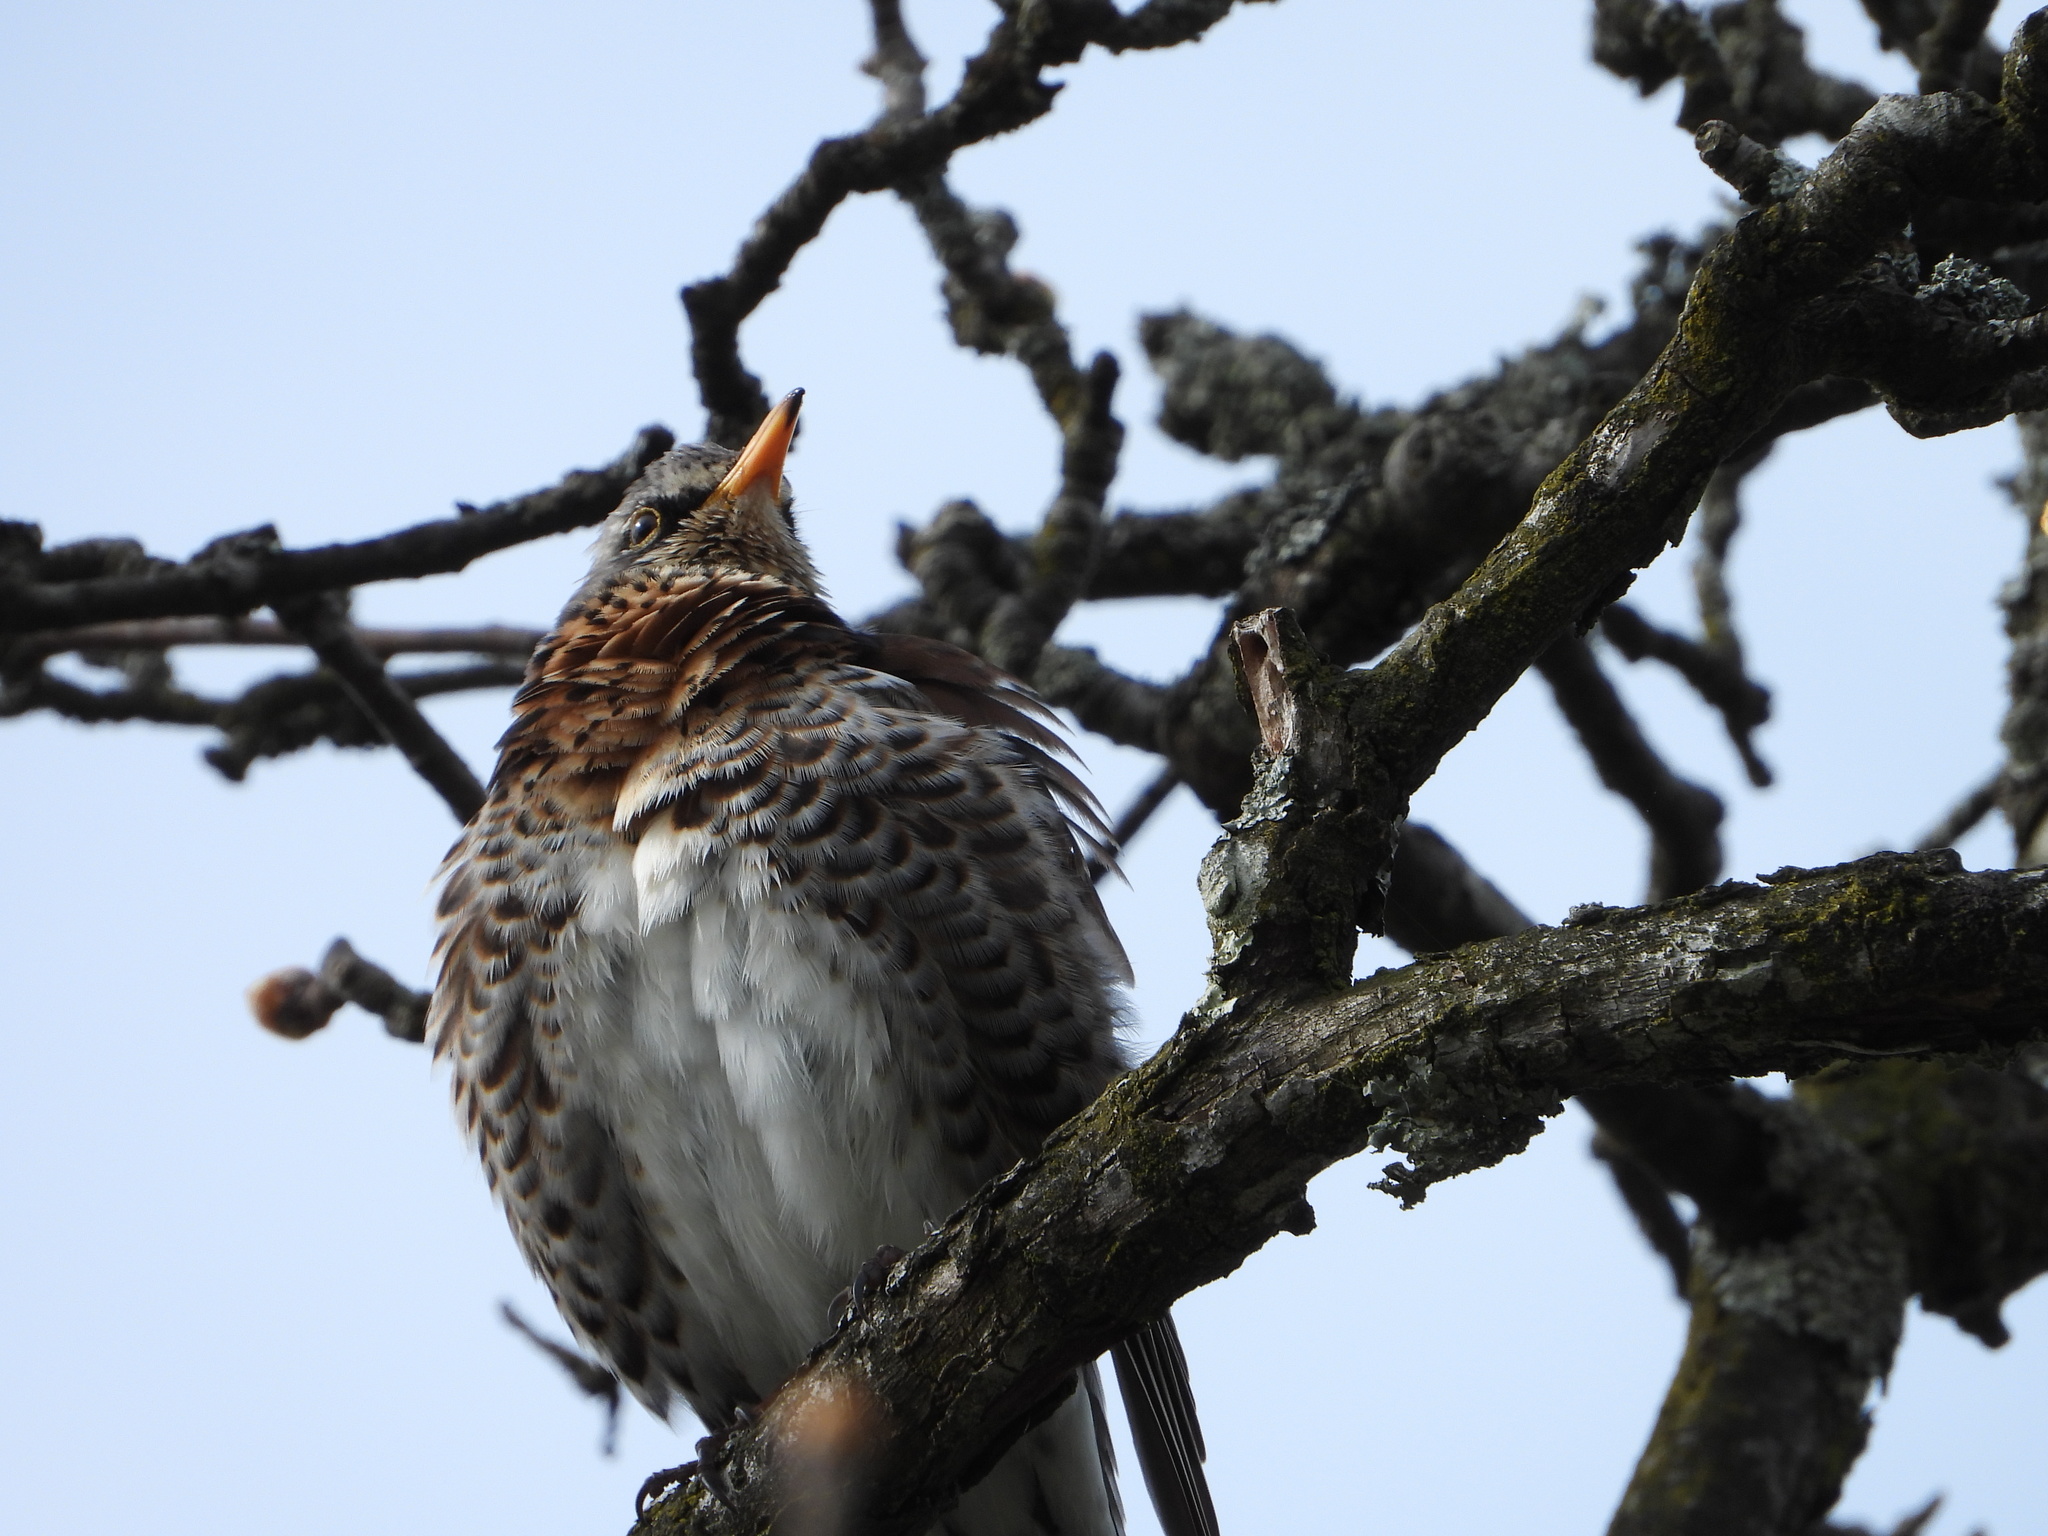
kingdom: Animalia
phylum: Chordata
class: Aves
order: Passeriformes
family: Turdidae
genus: Turdus
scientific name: Turdus pilaris
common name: Fieldfare
